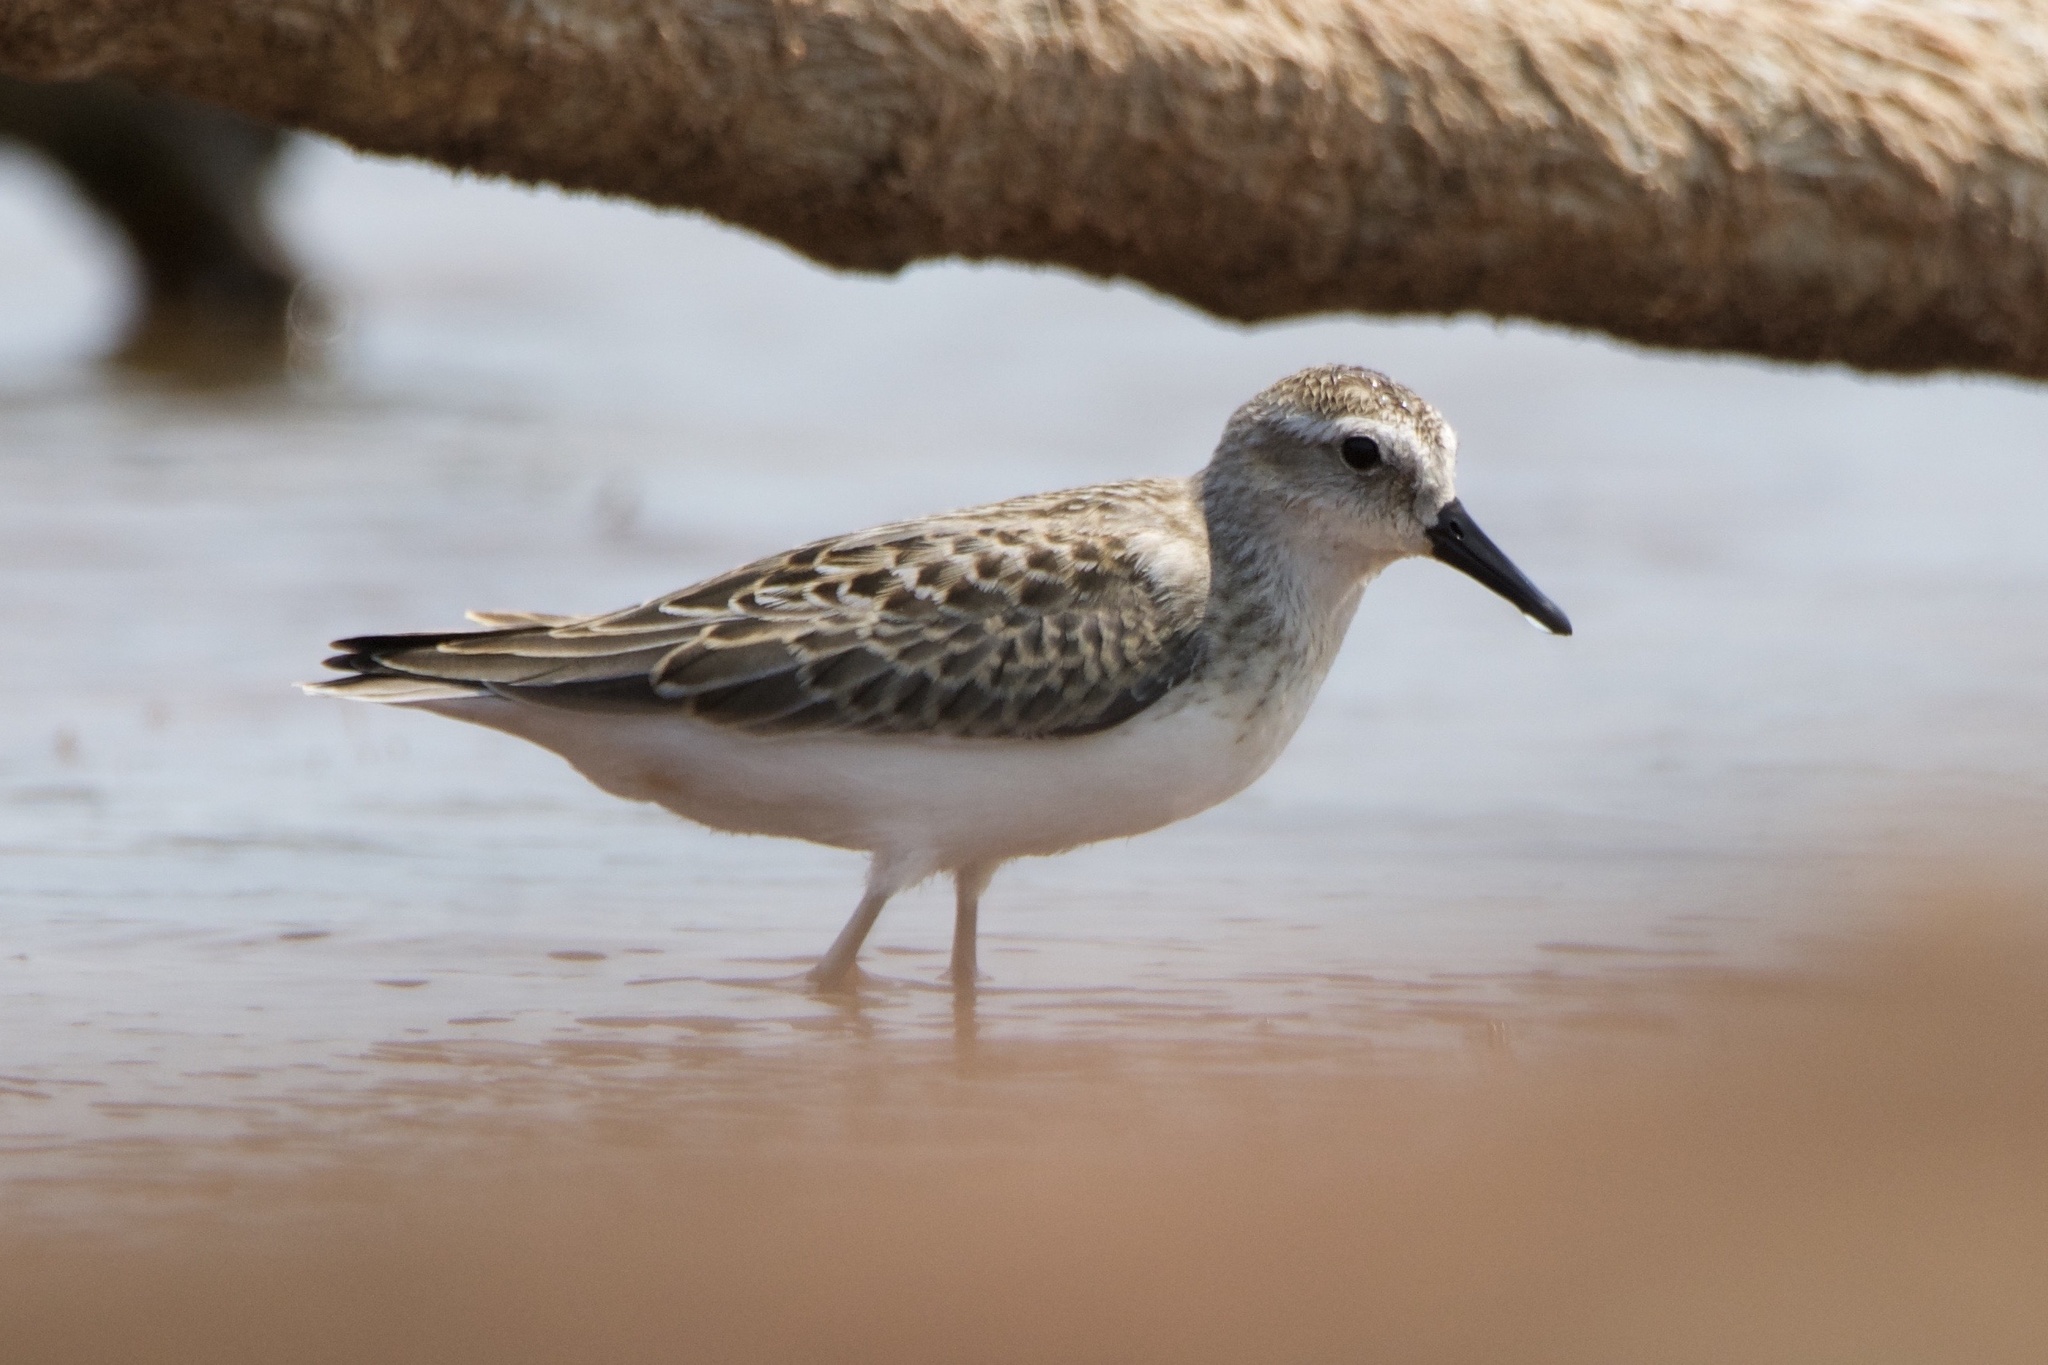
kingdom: Animalia
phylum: Chordata
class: Aves
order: Charadriiformes
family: Scolopacidae
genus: Calidris
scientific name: Calidris pusilla
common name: Semipalmated sandpiper
